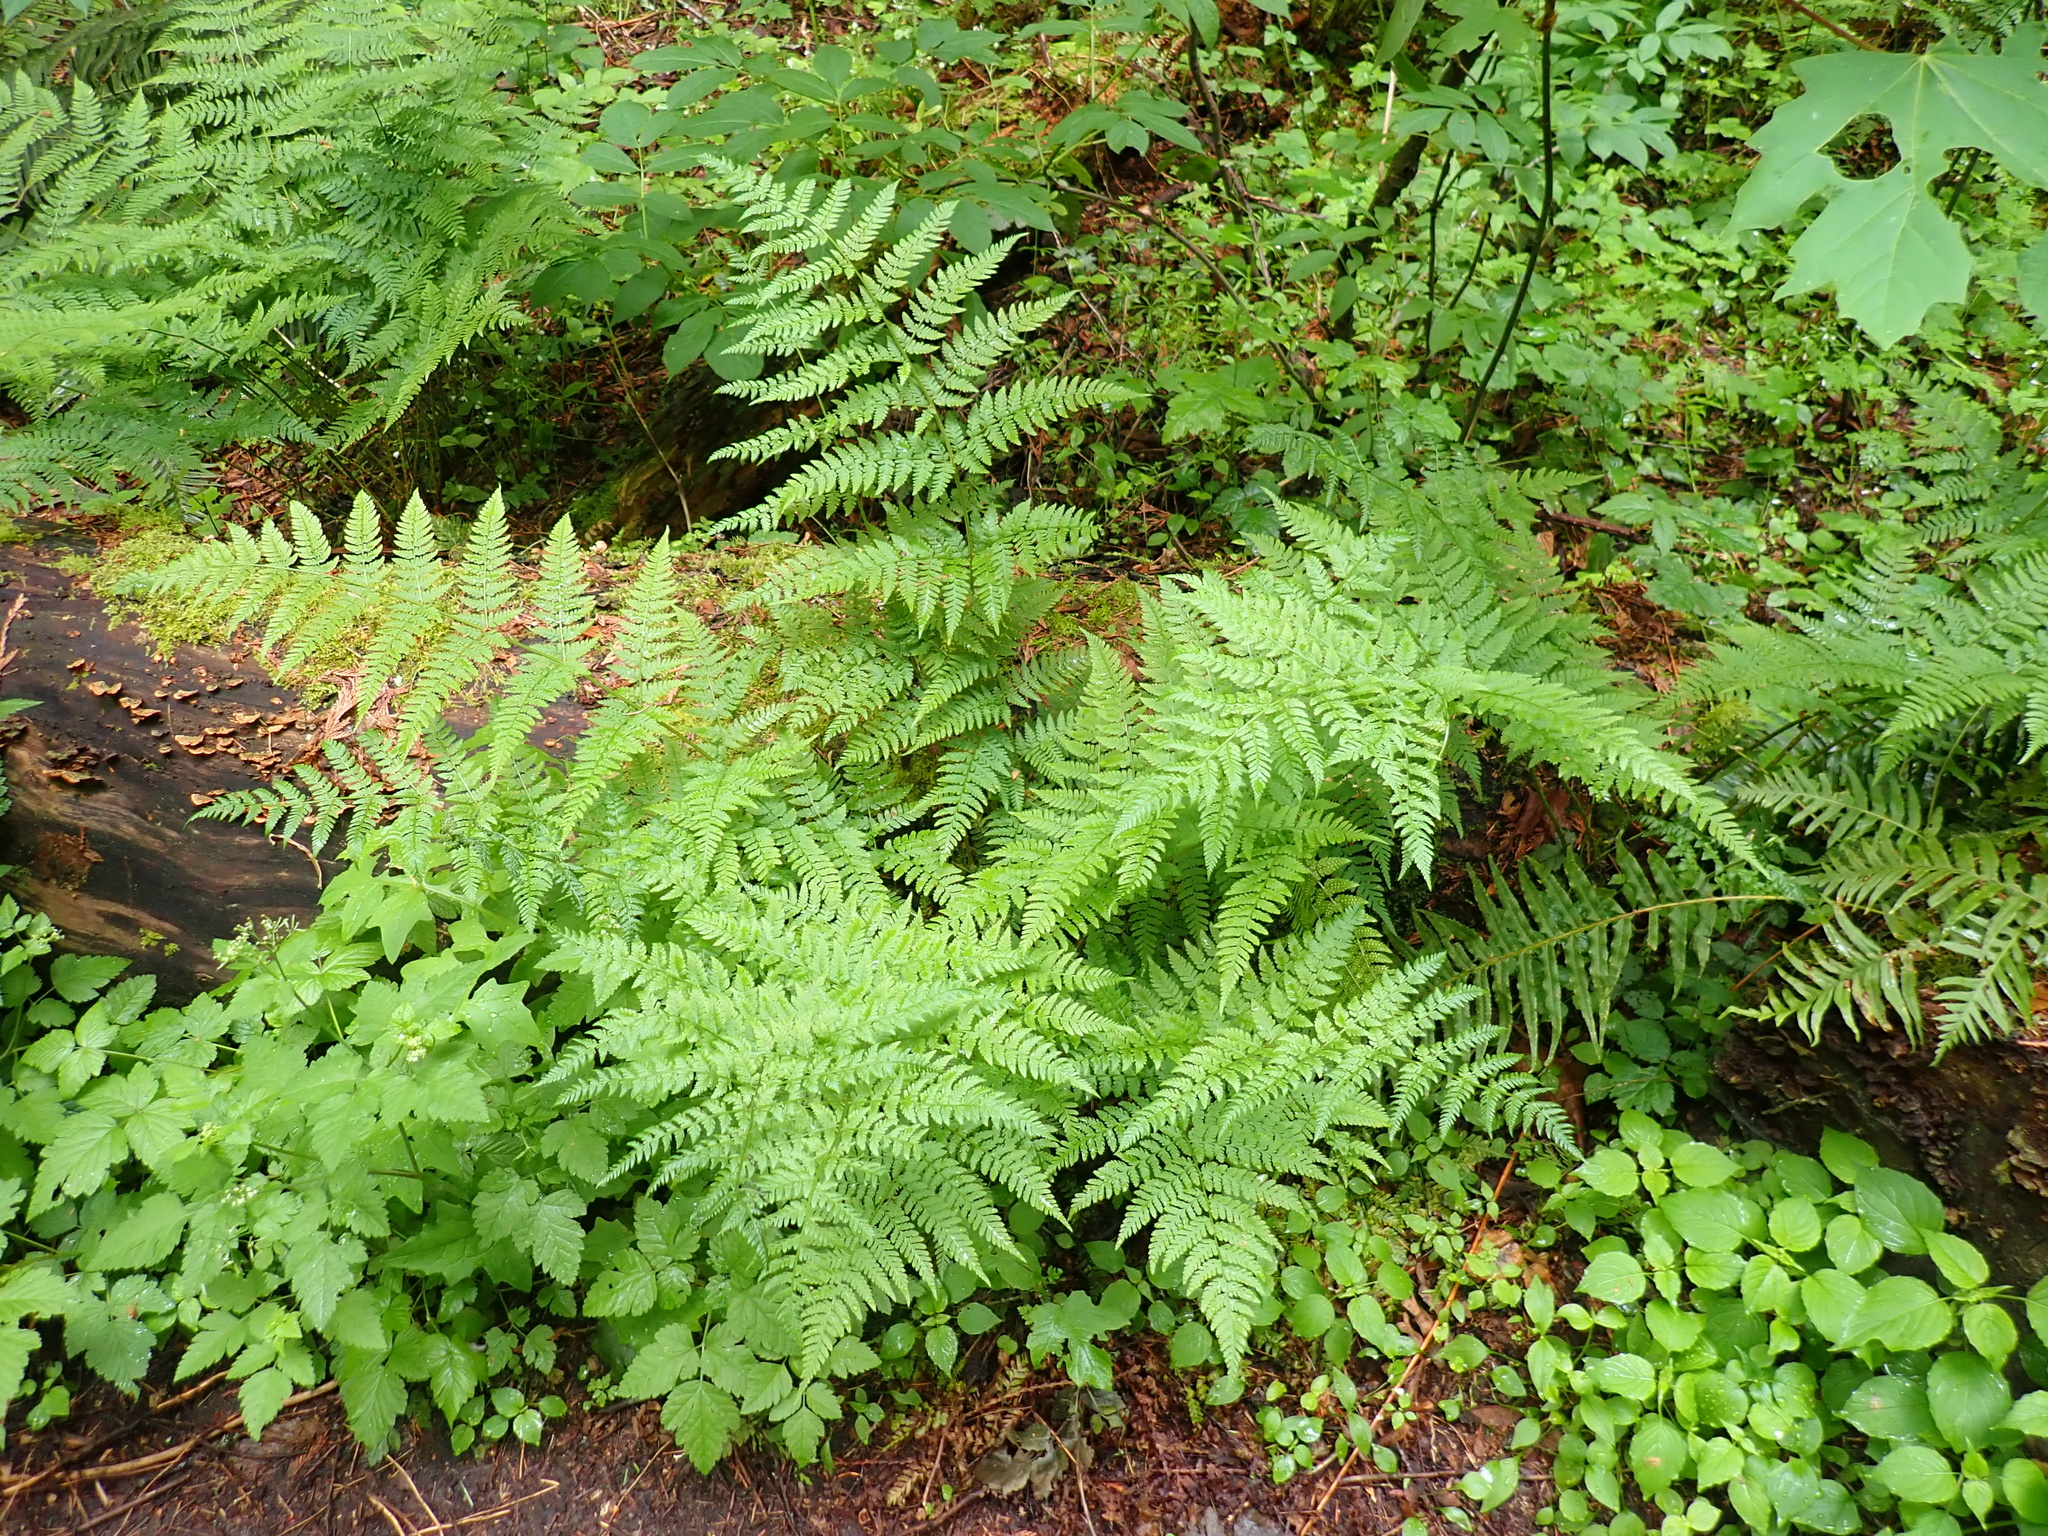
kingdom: Plantae
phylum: Tracheophyta
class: Polypodiopsida
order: Polypodiales
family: Dryopteridaceae
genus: Dryopteris
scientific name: Dryopteris expansa
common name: Northern buckler fern
